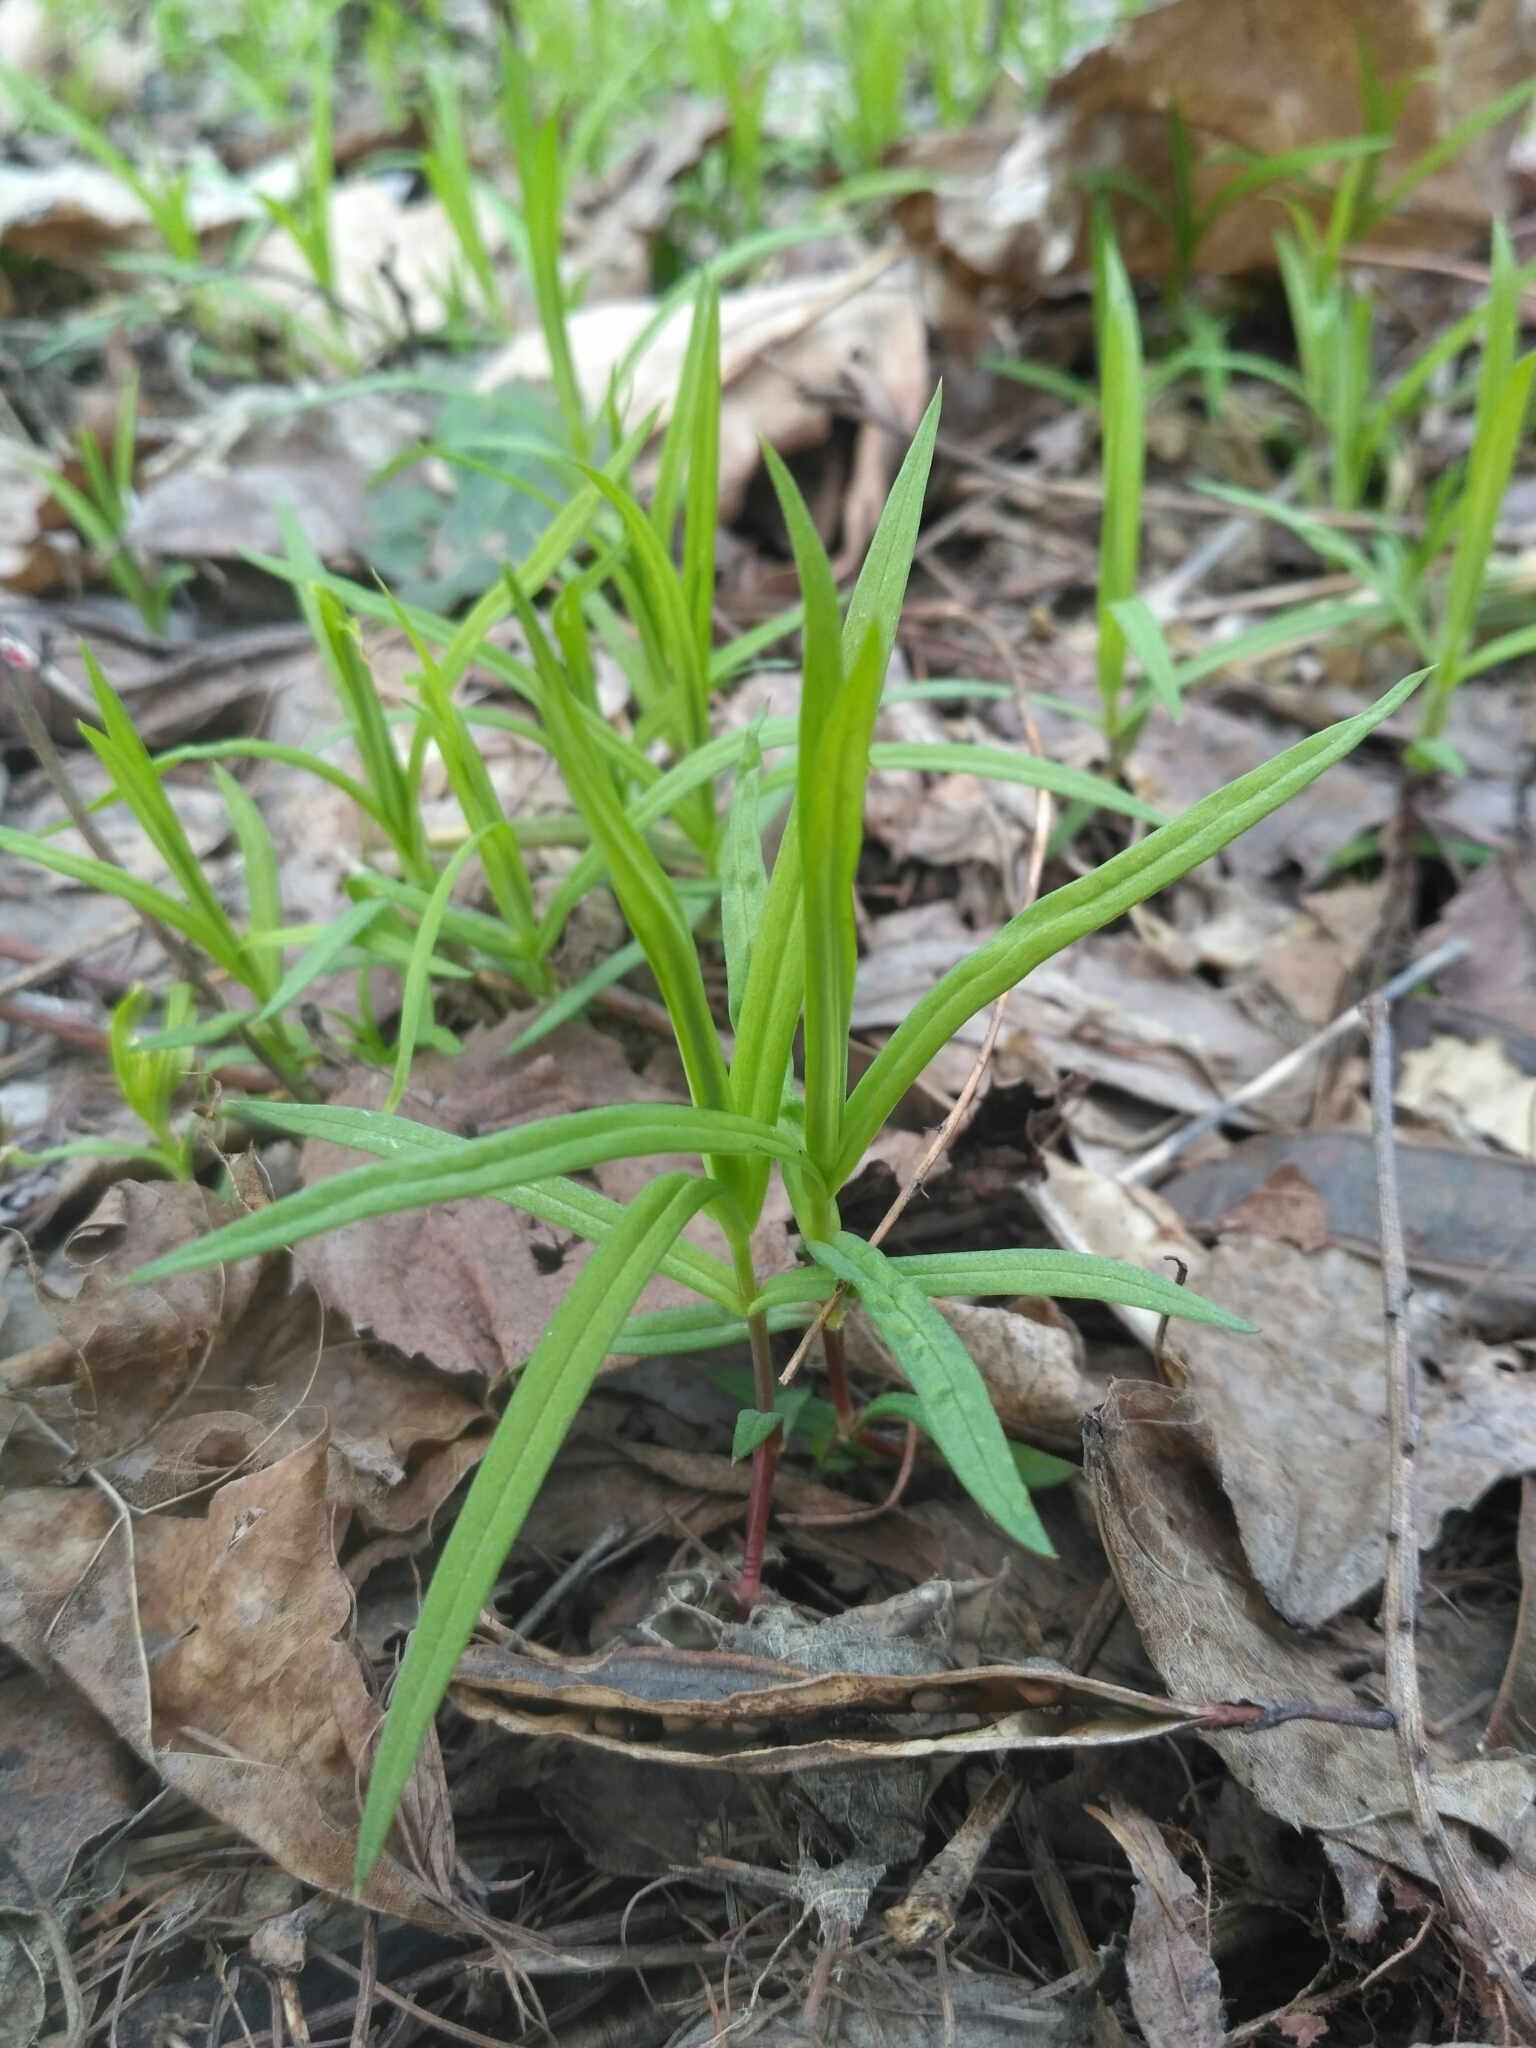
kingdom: Plantae
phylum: Tracheophyta
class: Magnoliopsida
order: Caryophyllales
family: Caryophyllaceae
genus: Rabelera
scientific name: Rabelera holostea
